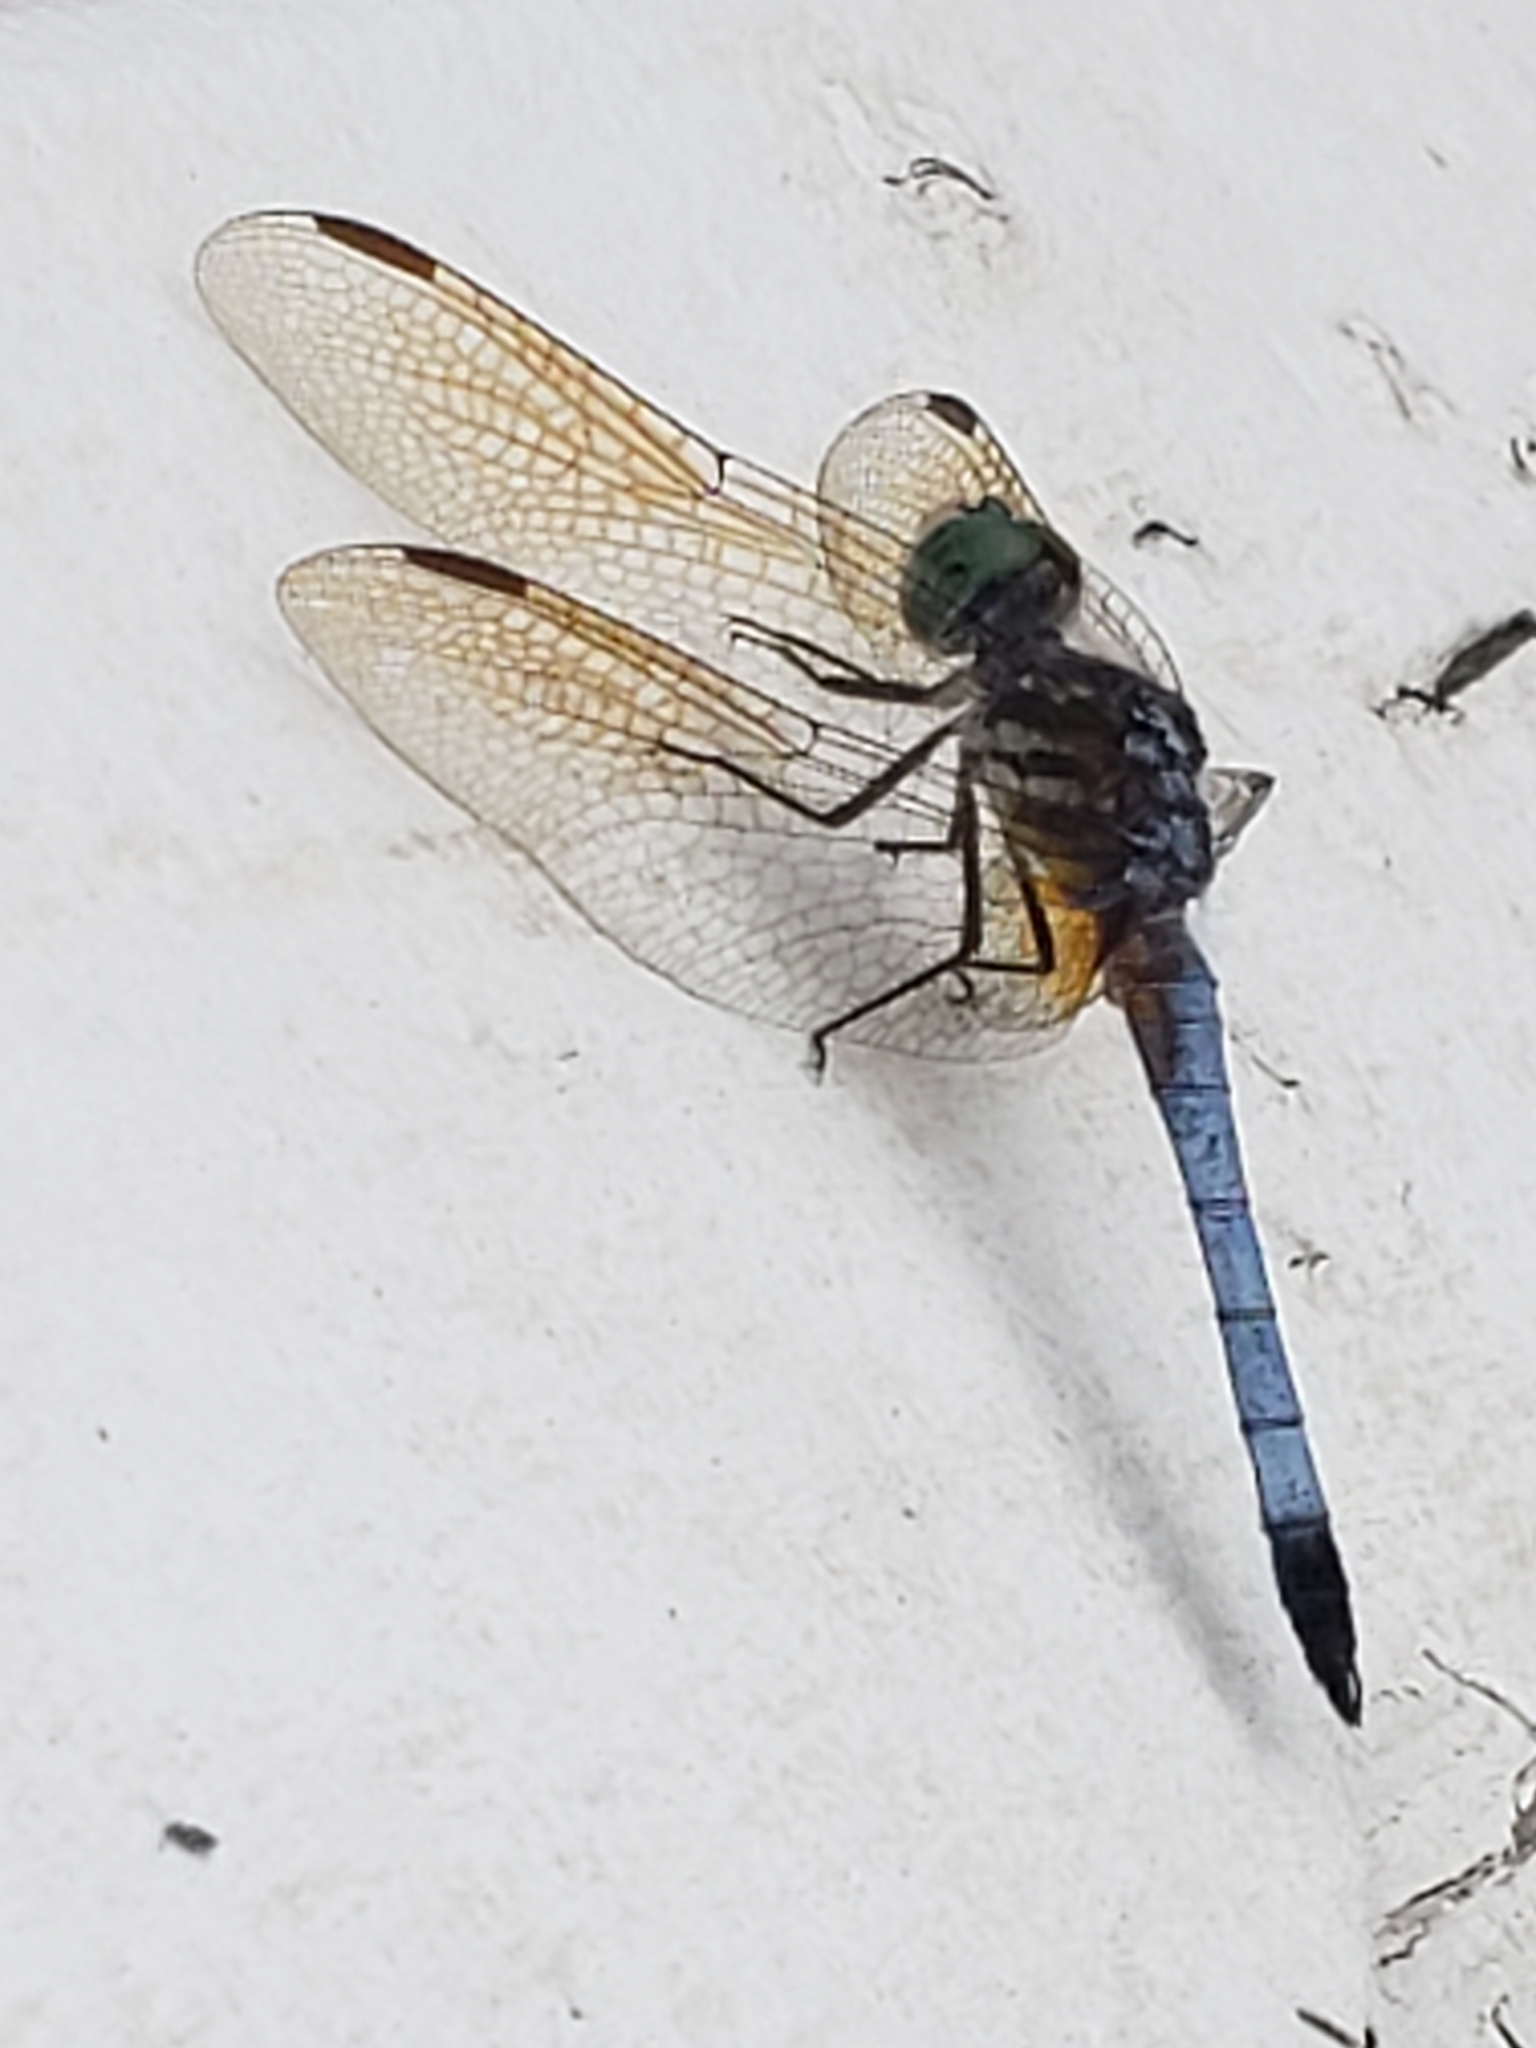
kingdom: Animalia
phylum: Arthropoda
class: Insecta
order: Odonata
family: Libellulidae
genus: Pachydiplax
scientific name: Pachydiplax longipennis
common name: Blue dasher
